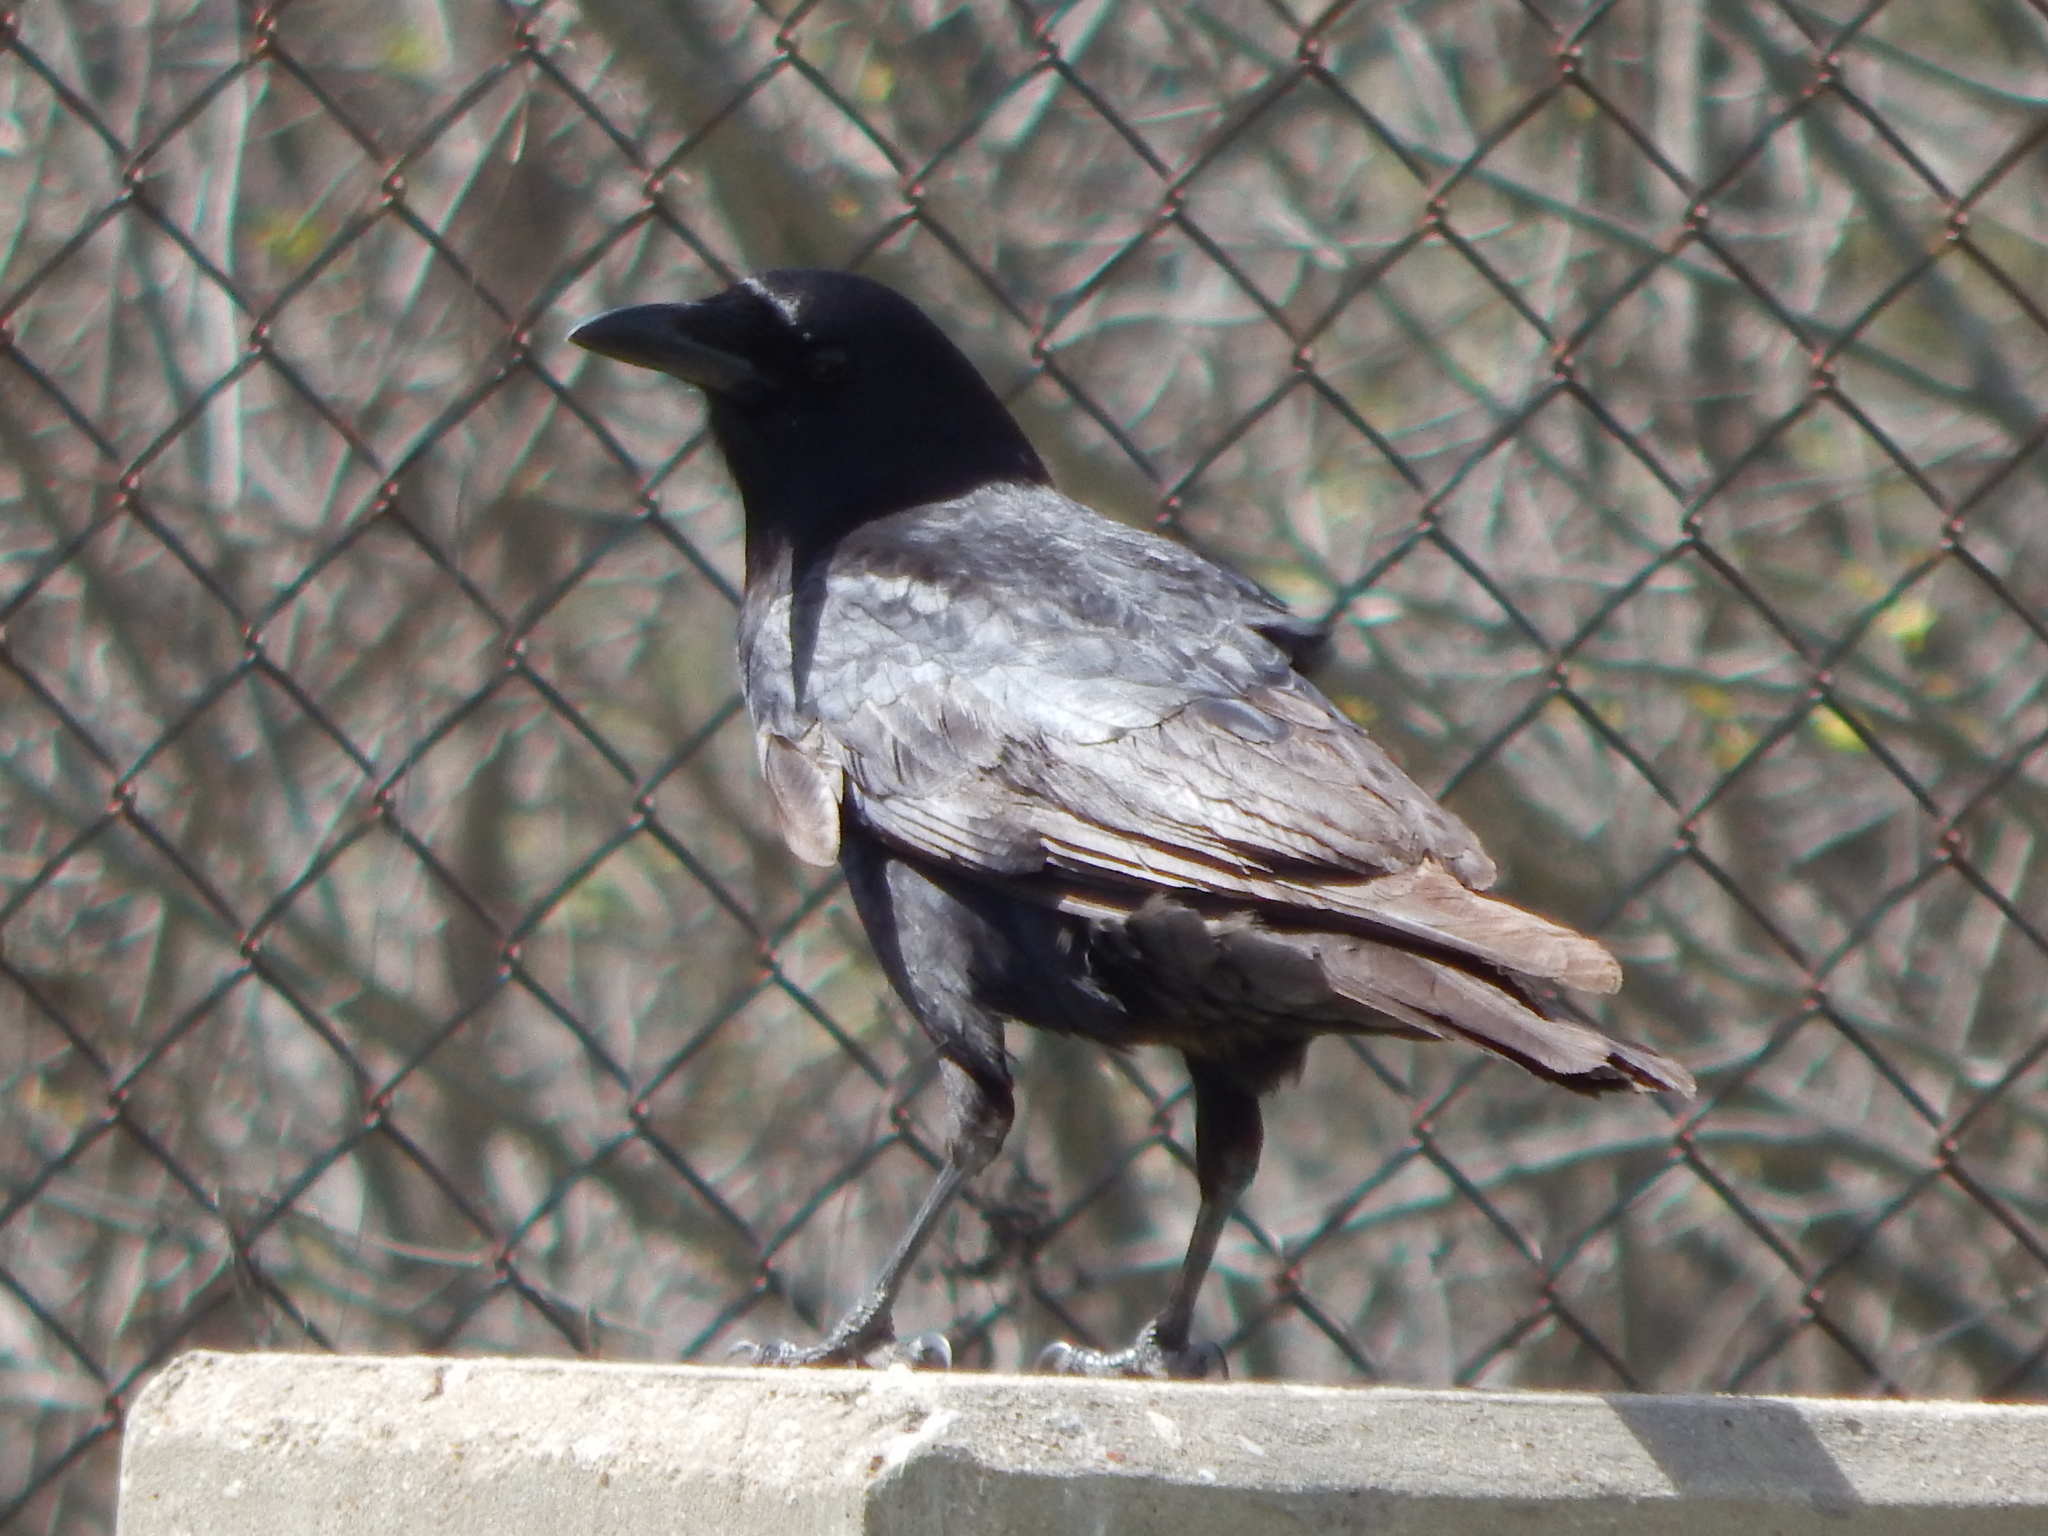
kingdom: Animalia
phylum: Chordata
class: Aves
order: Passeriformes
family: Corvidae
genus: Corvus
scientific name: Corvus brachyrhynchos
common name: American crow
